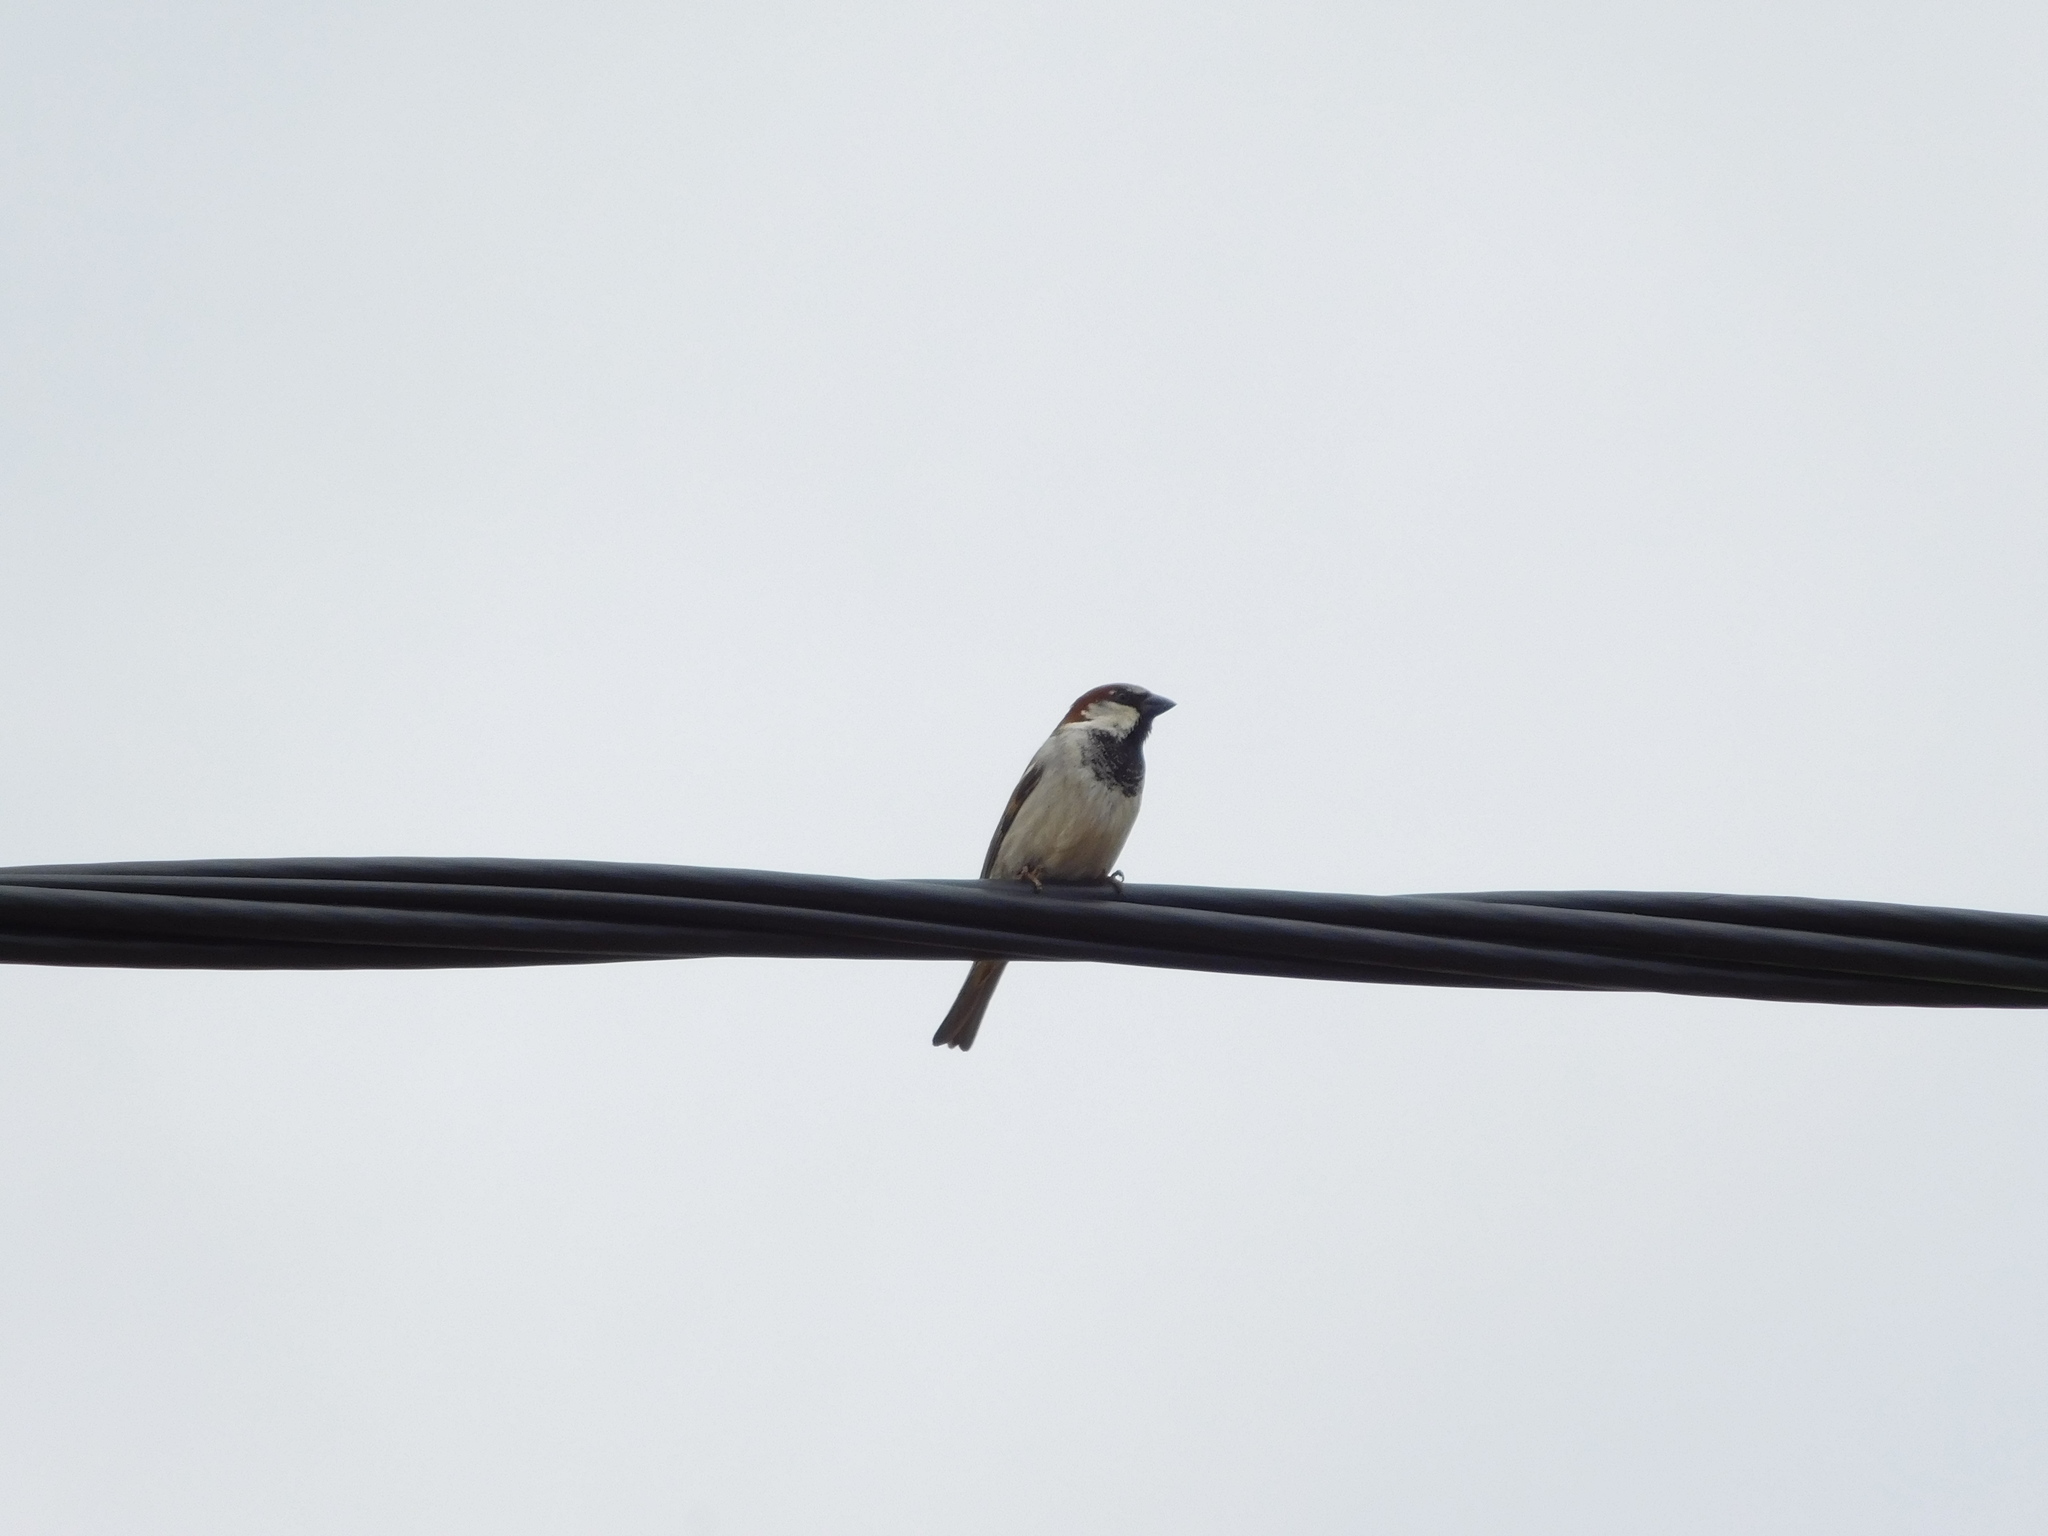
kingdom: Animalia
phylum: Chordata
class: Aves
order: Passeriformes
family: Passeridae
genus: Passer
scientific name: Passer domesticus
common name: House sparrow
